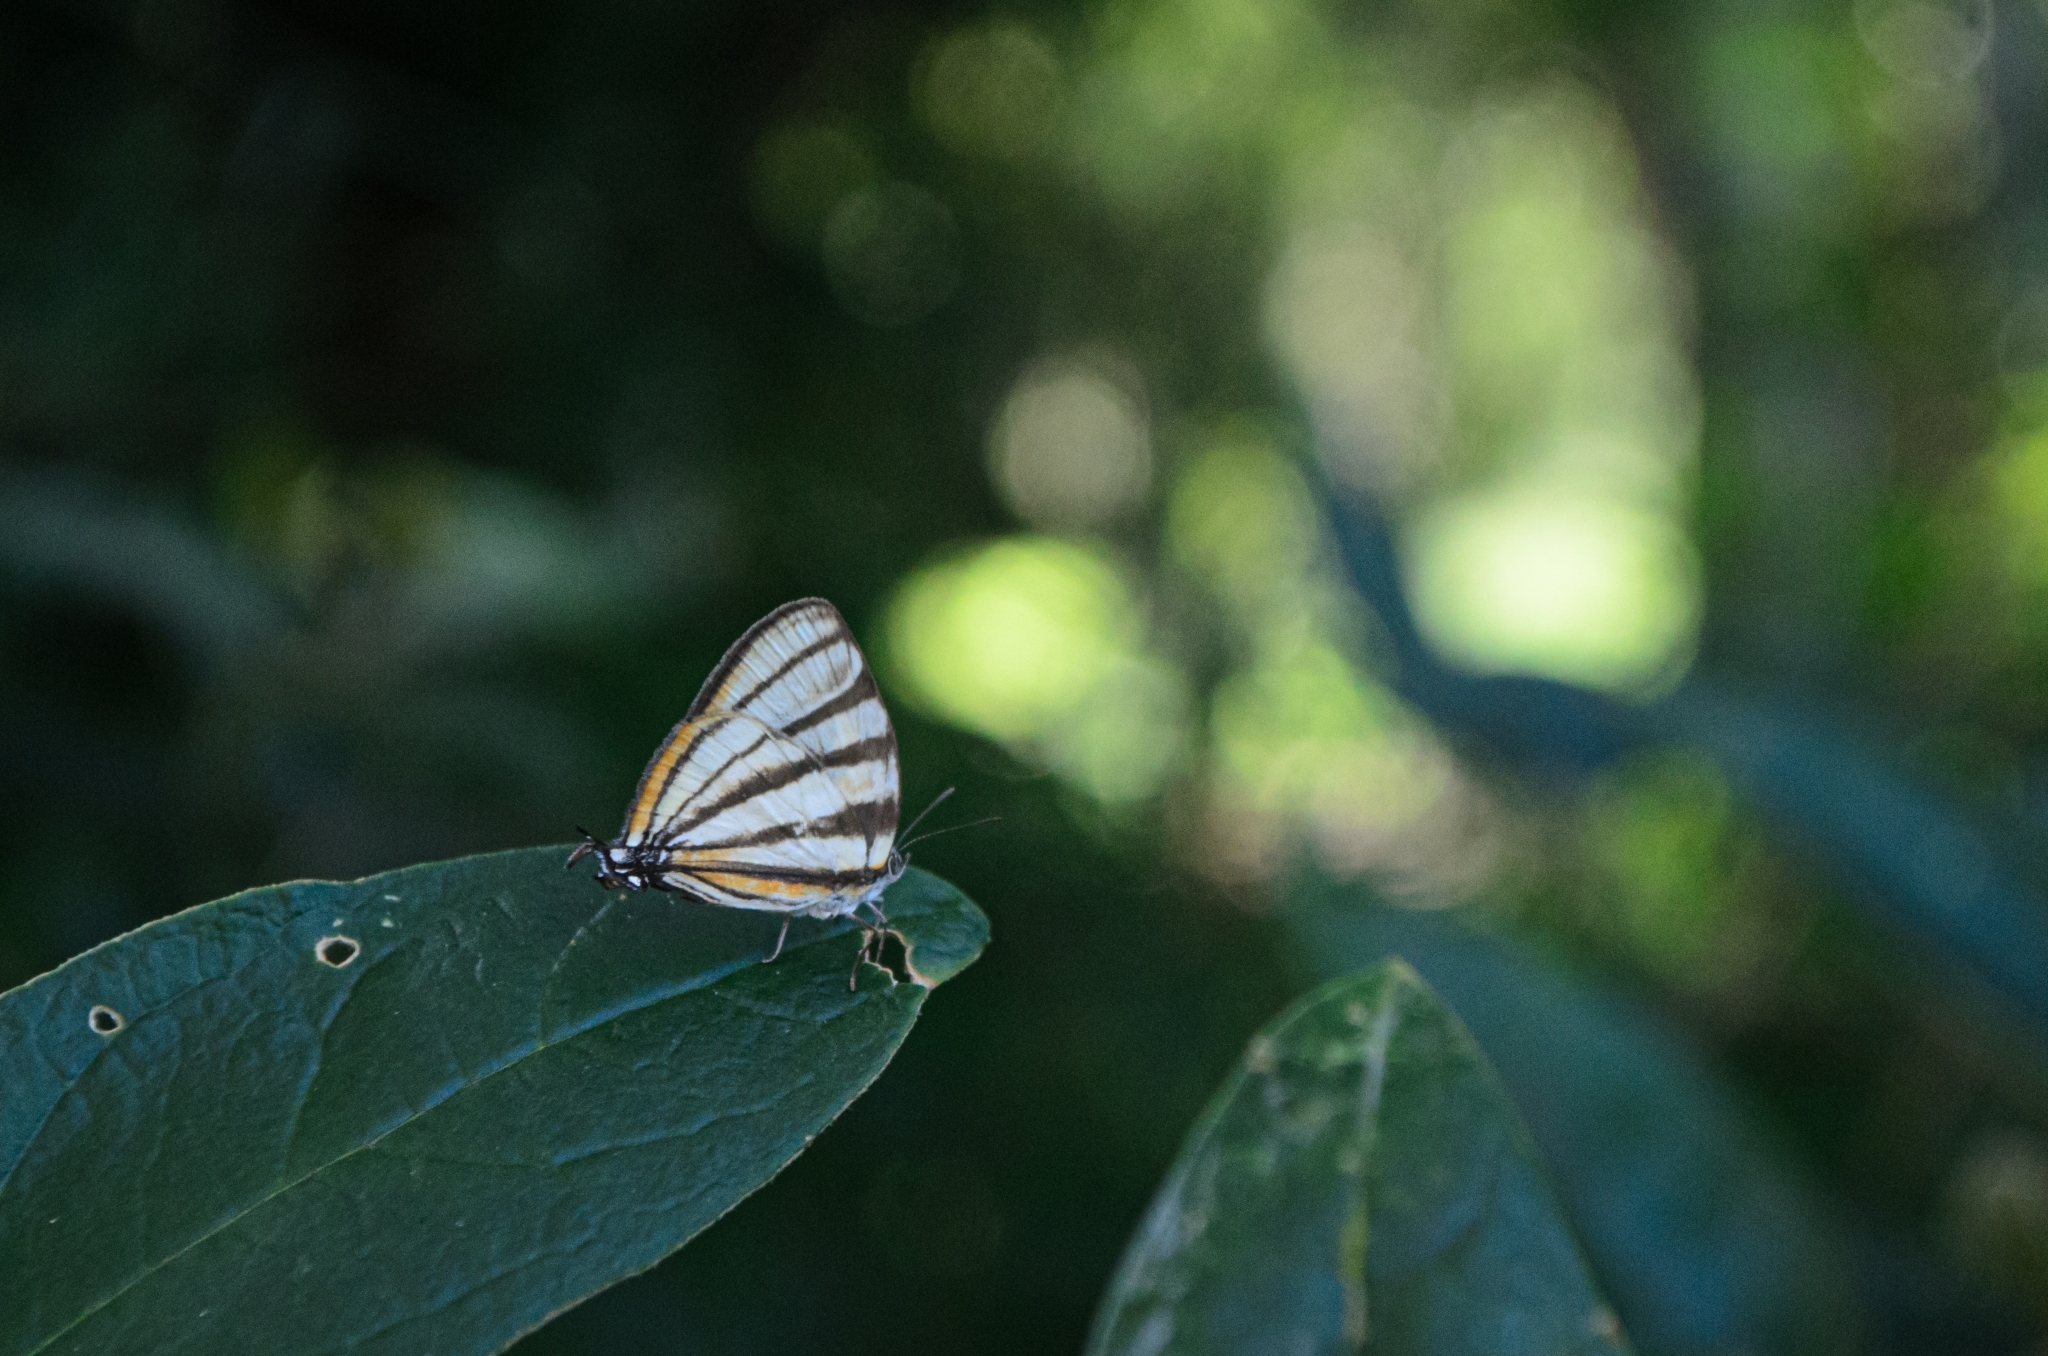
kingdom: Animalia
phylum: Arthropoda
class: Insecta
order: Lepidoptera
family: Lycaenidae
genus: Arawacus
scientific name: Arawacus separata
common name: Separated stripestreak
